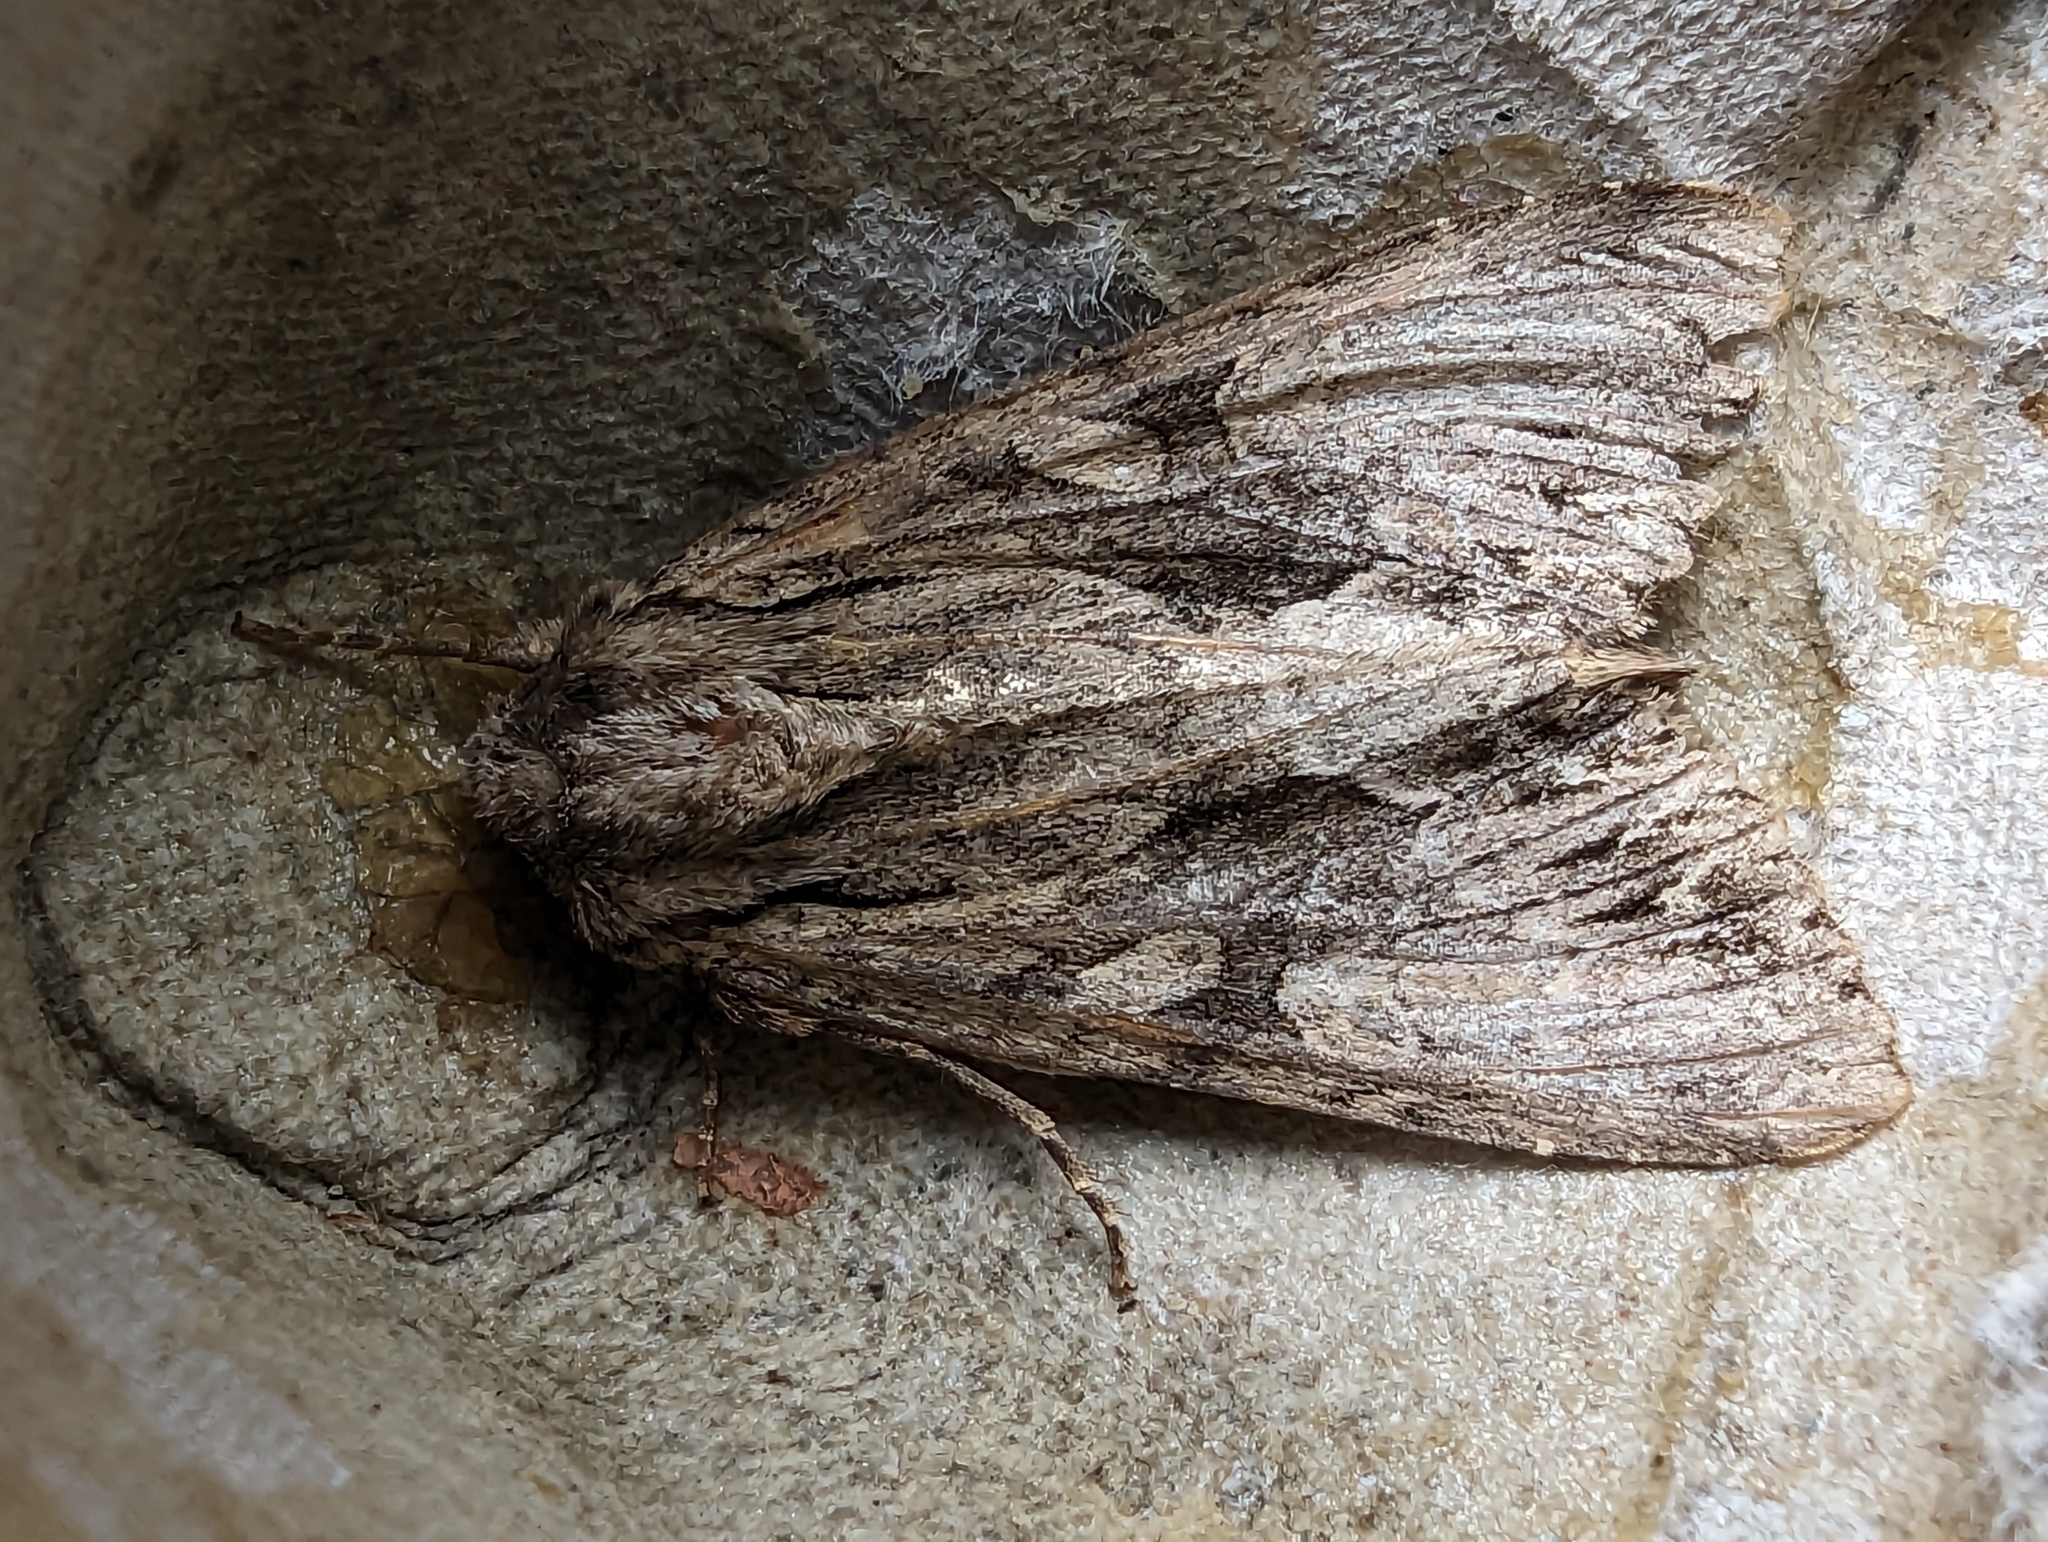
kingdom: Animalia
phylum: Arthropoda
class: Insecta
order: Lepidoptera
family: Noctuidae
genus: Apamea
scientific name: Apamea monoglypha
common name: Dark arches
